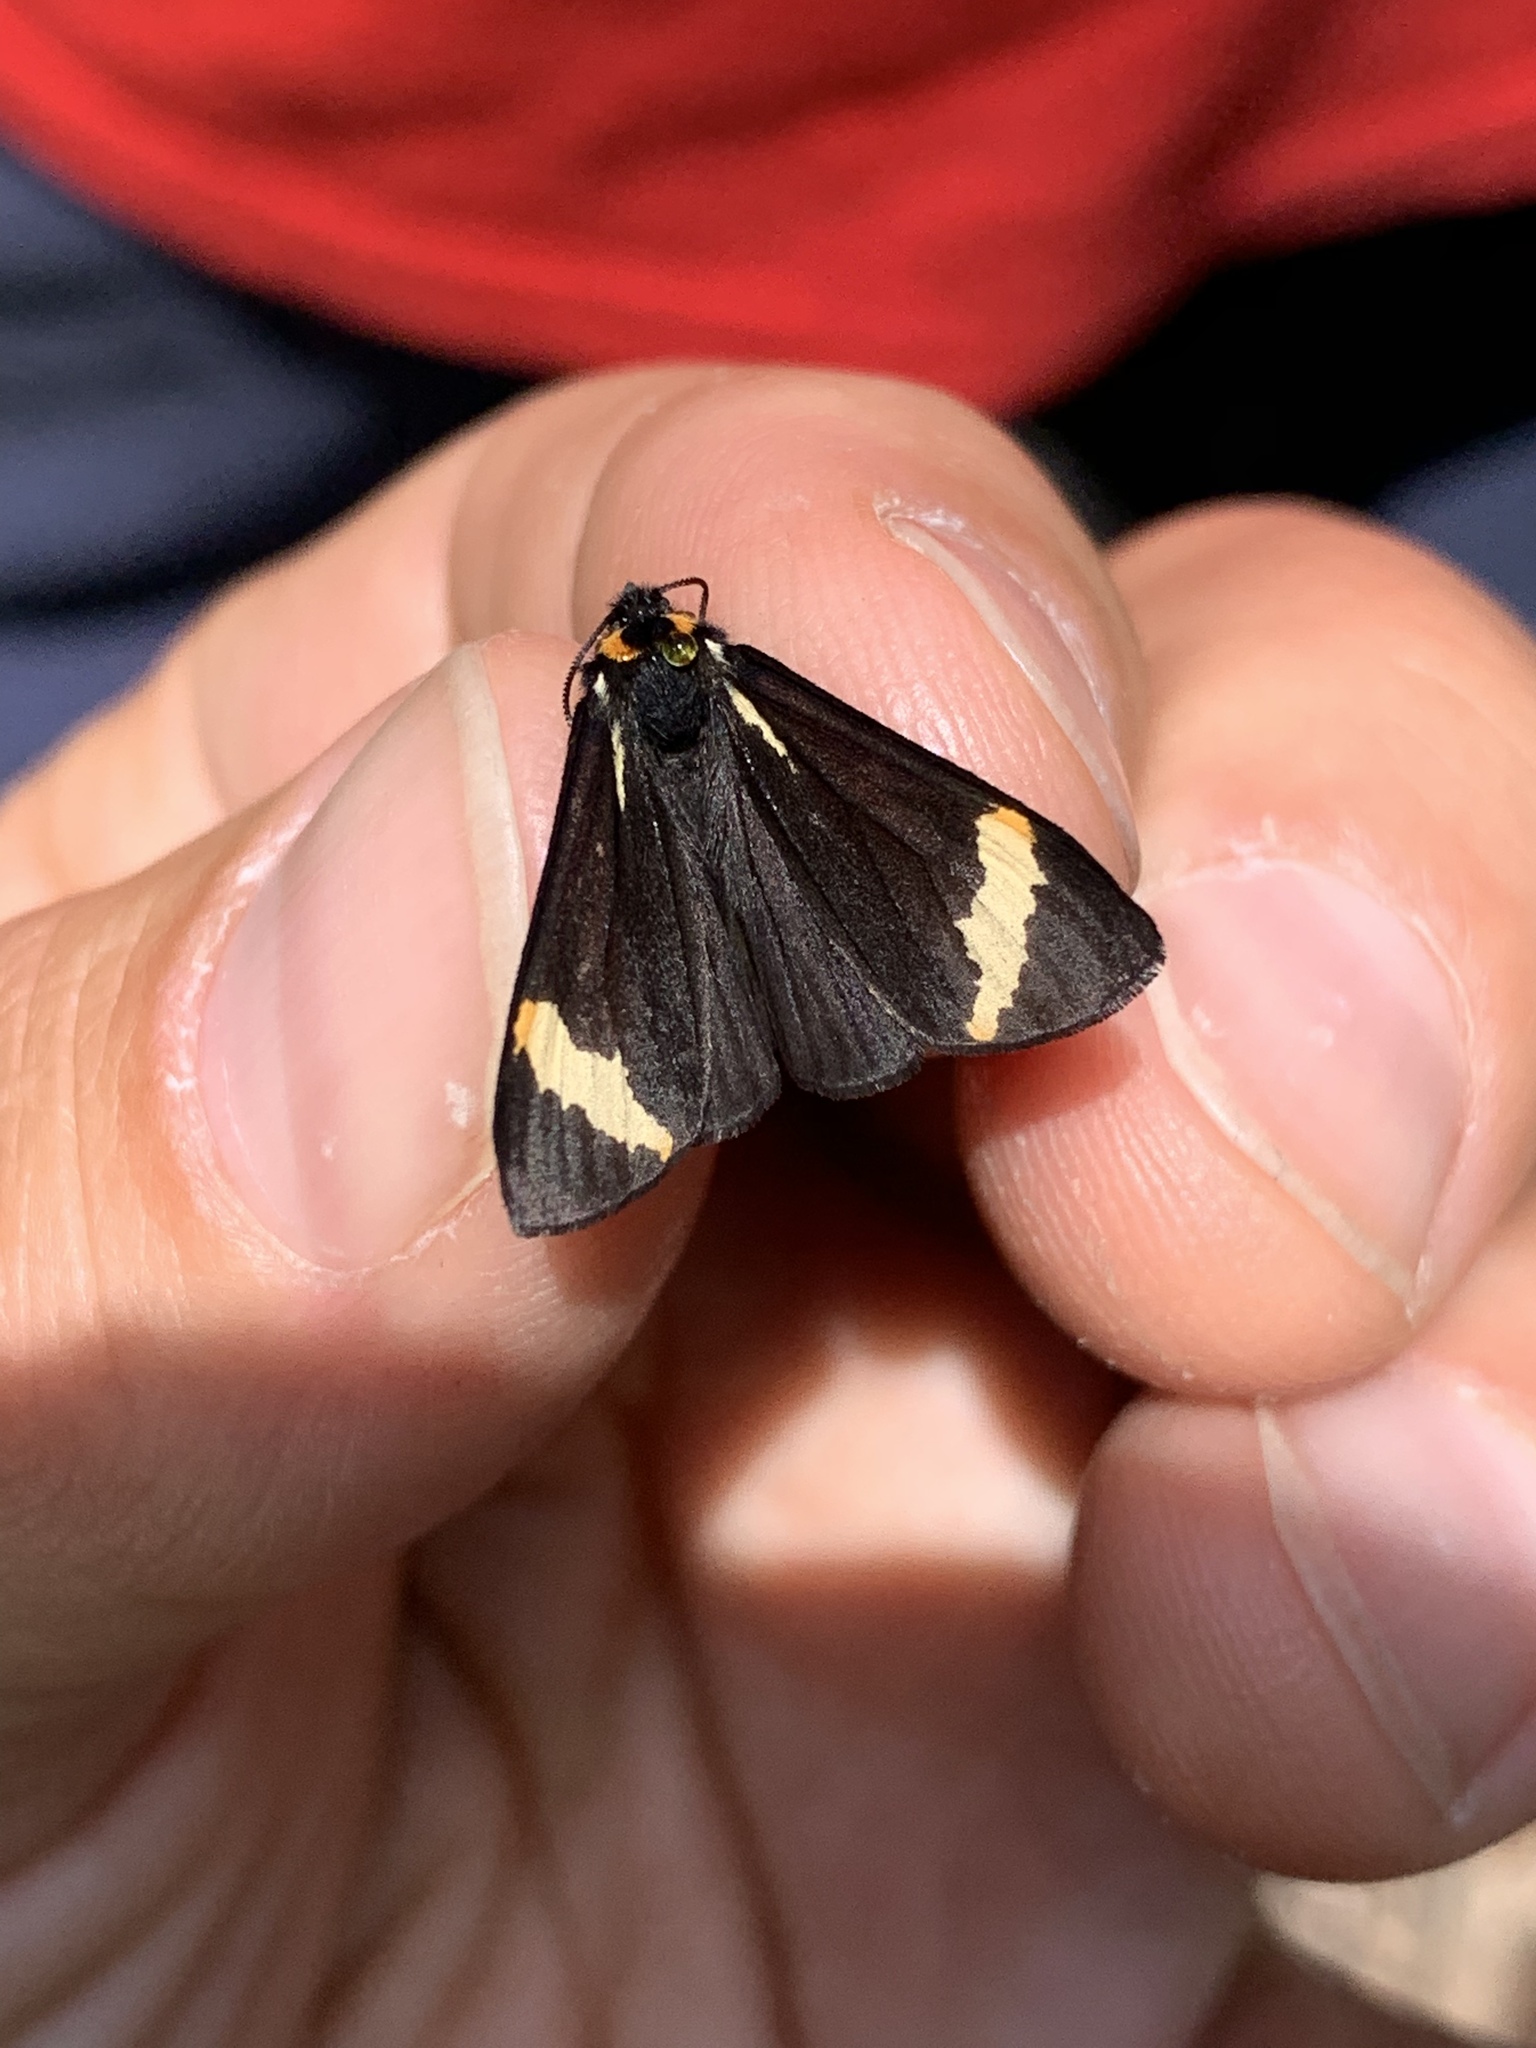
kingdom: Animalia
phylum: Arthropoda
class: Insecta
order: Lepidoptera
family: Erebidae
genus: Parasemia
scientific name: Parasemia plantaginis
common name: Wood tiger
